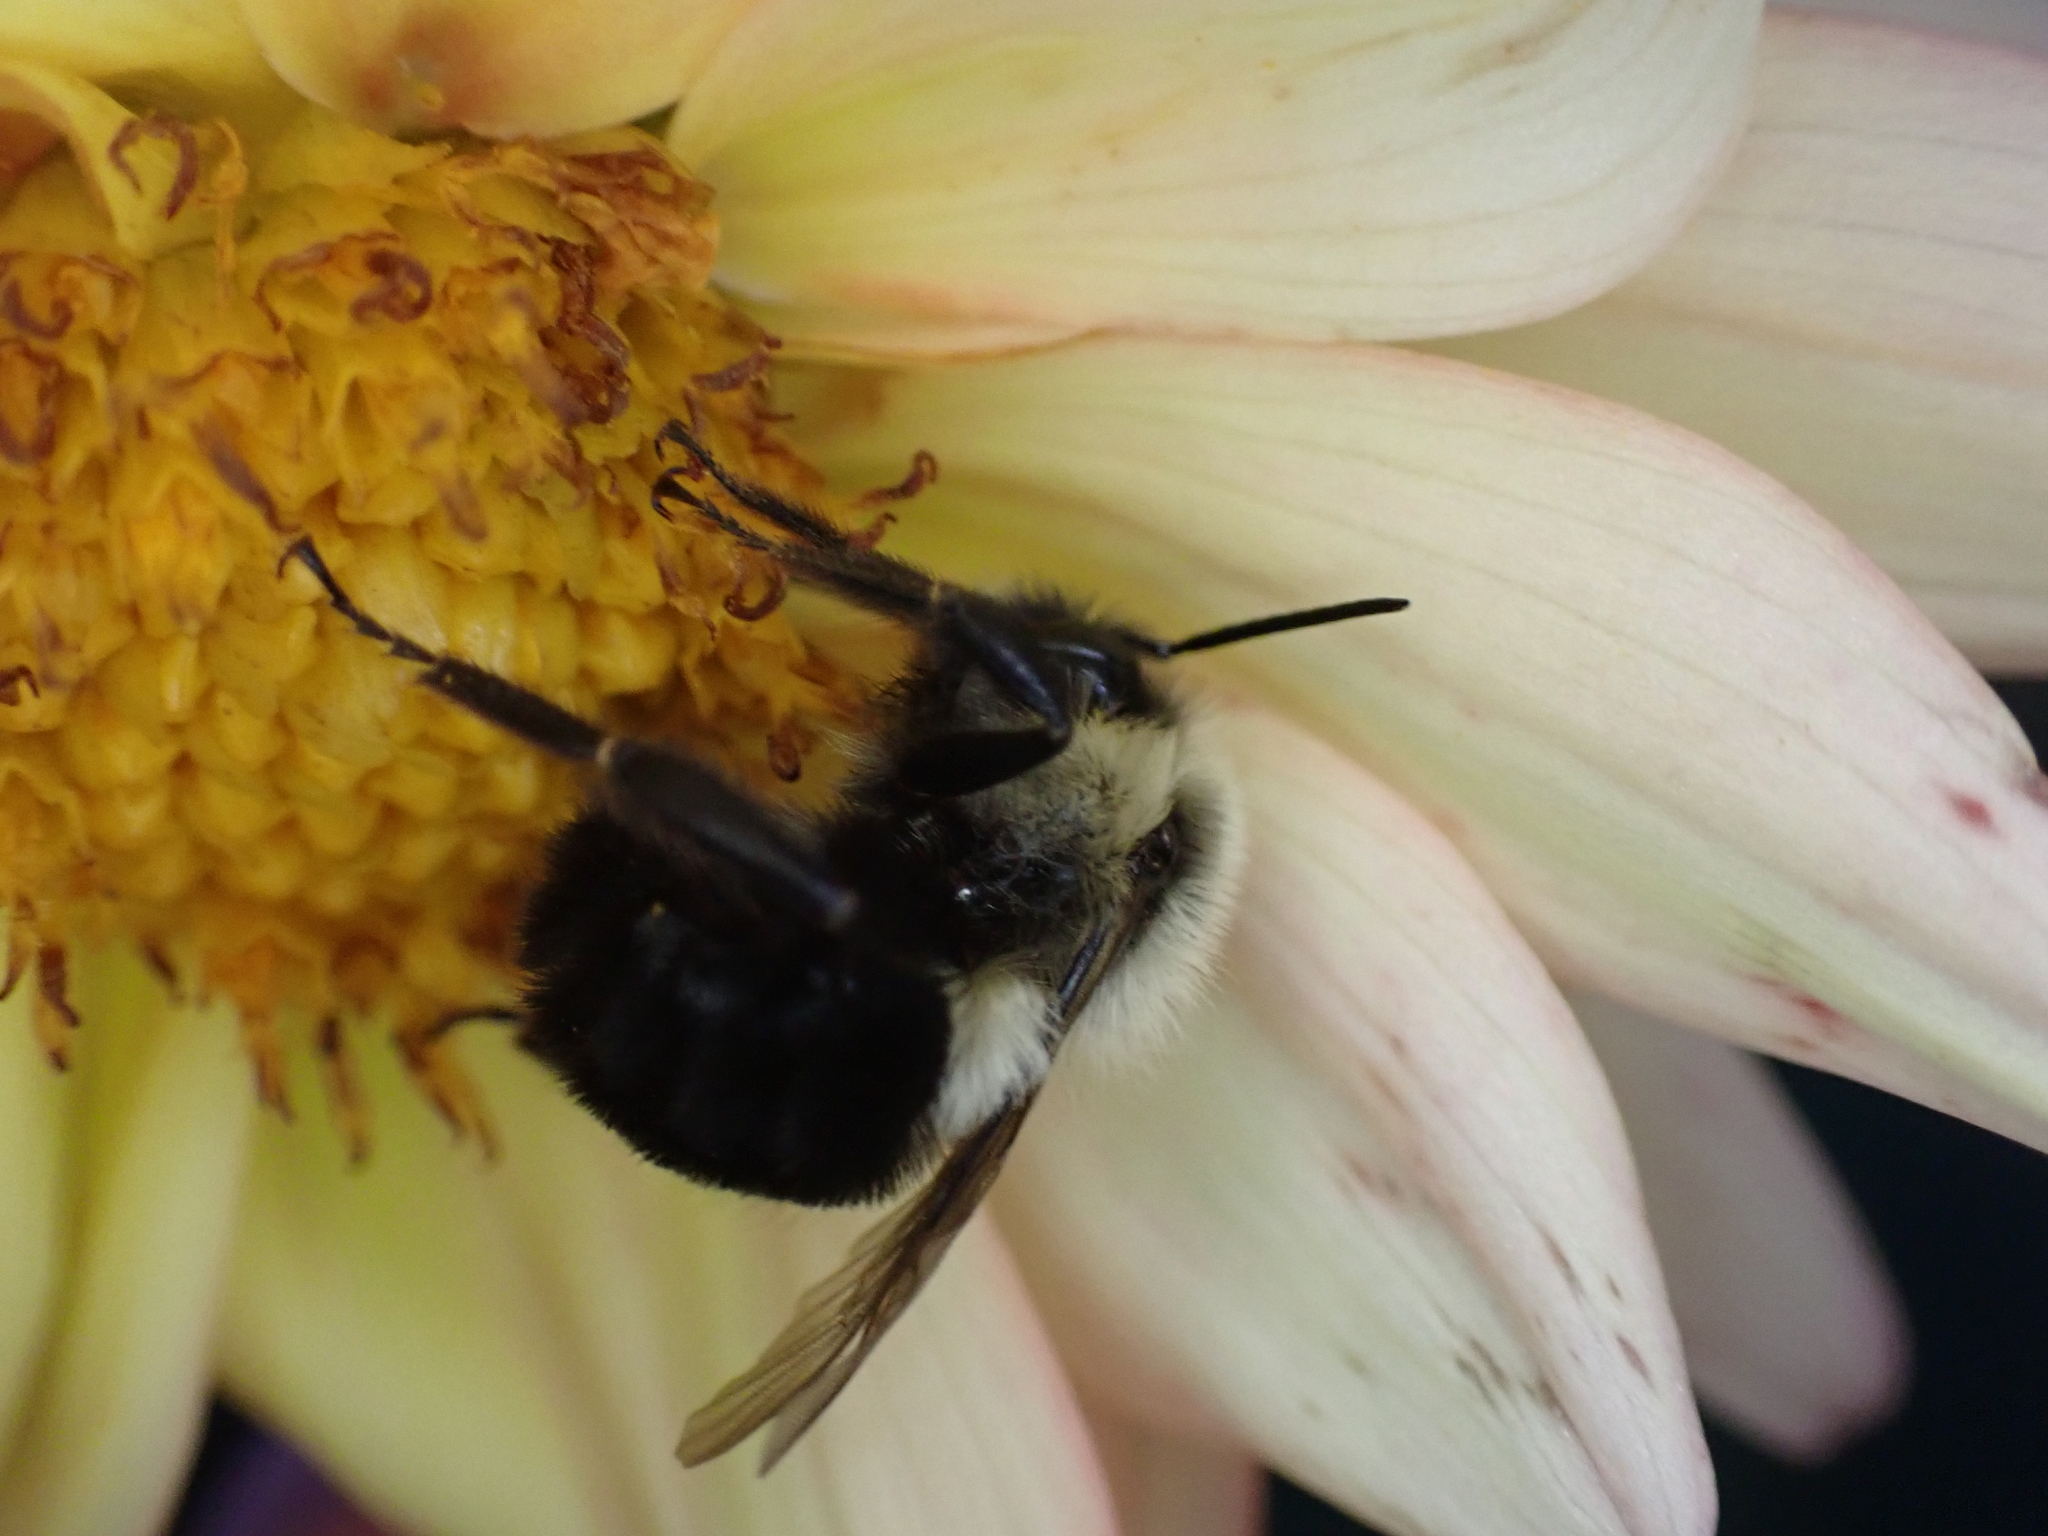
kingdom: Animalia
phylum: Arthropoda
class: Insecta
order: Hymenoptera
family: Apidae
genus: Bombus
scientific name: Bombus impatiens
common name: Common eastern bumble bee
